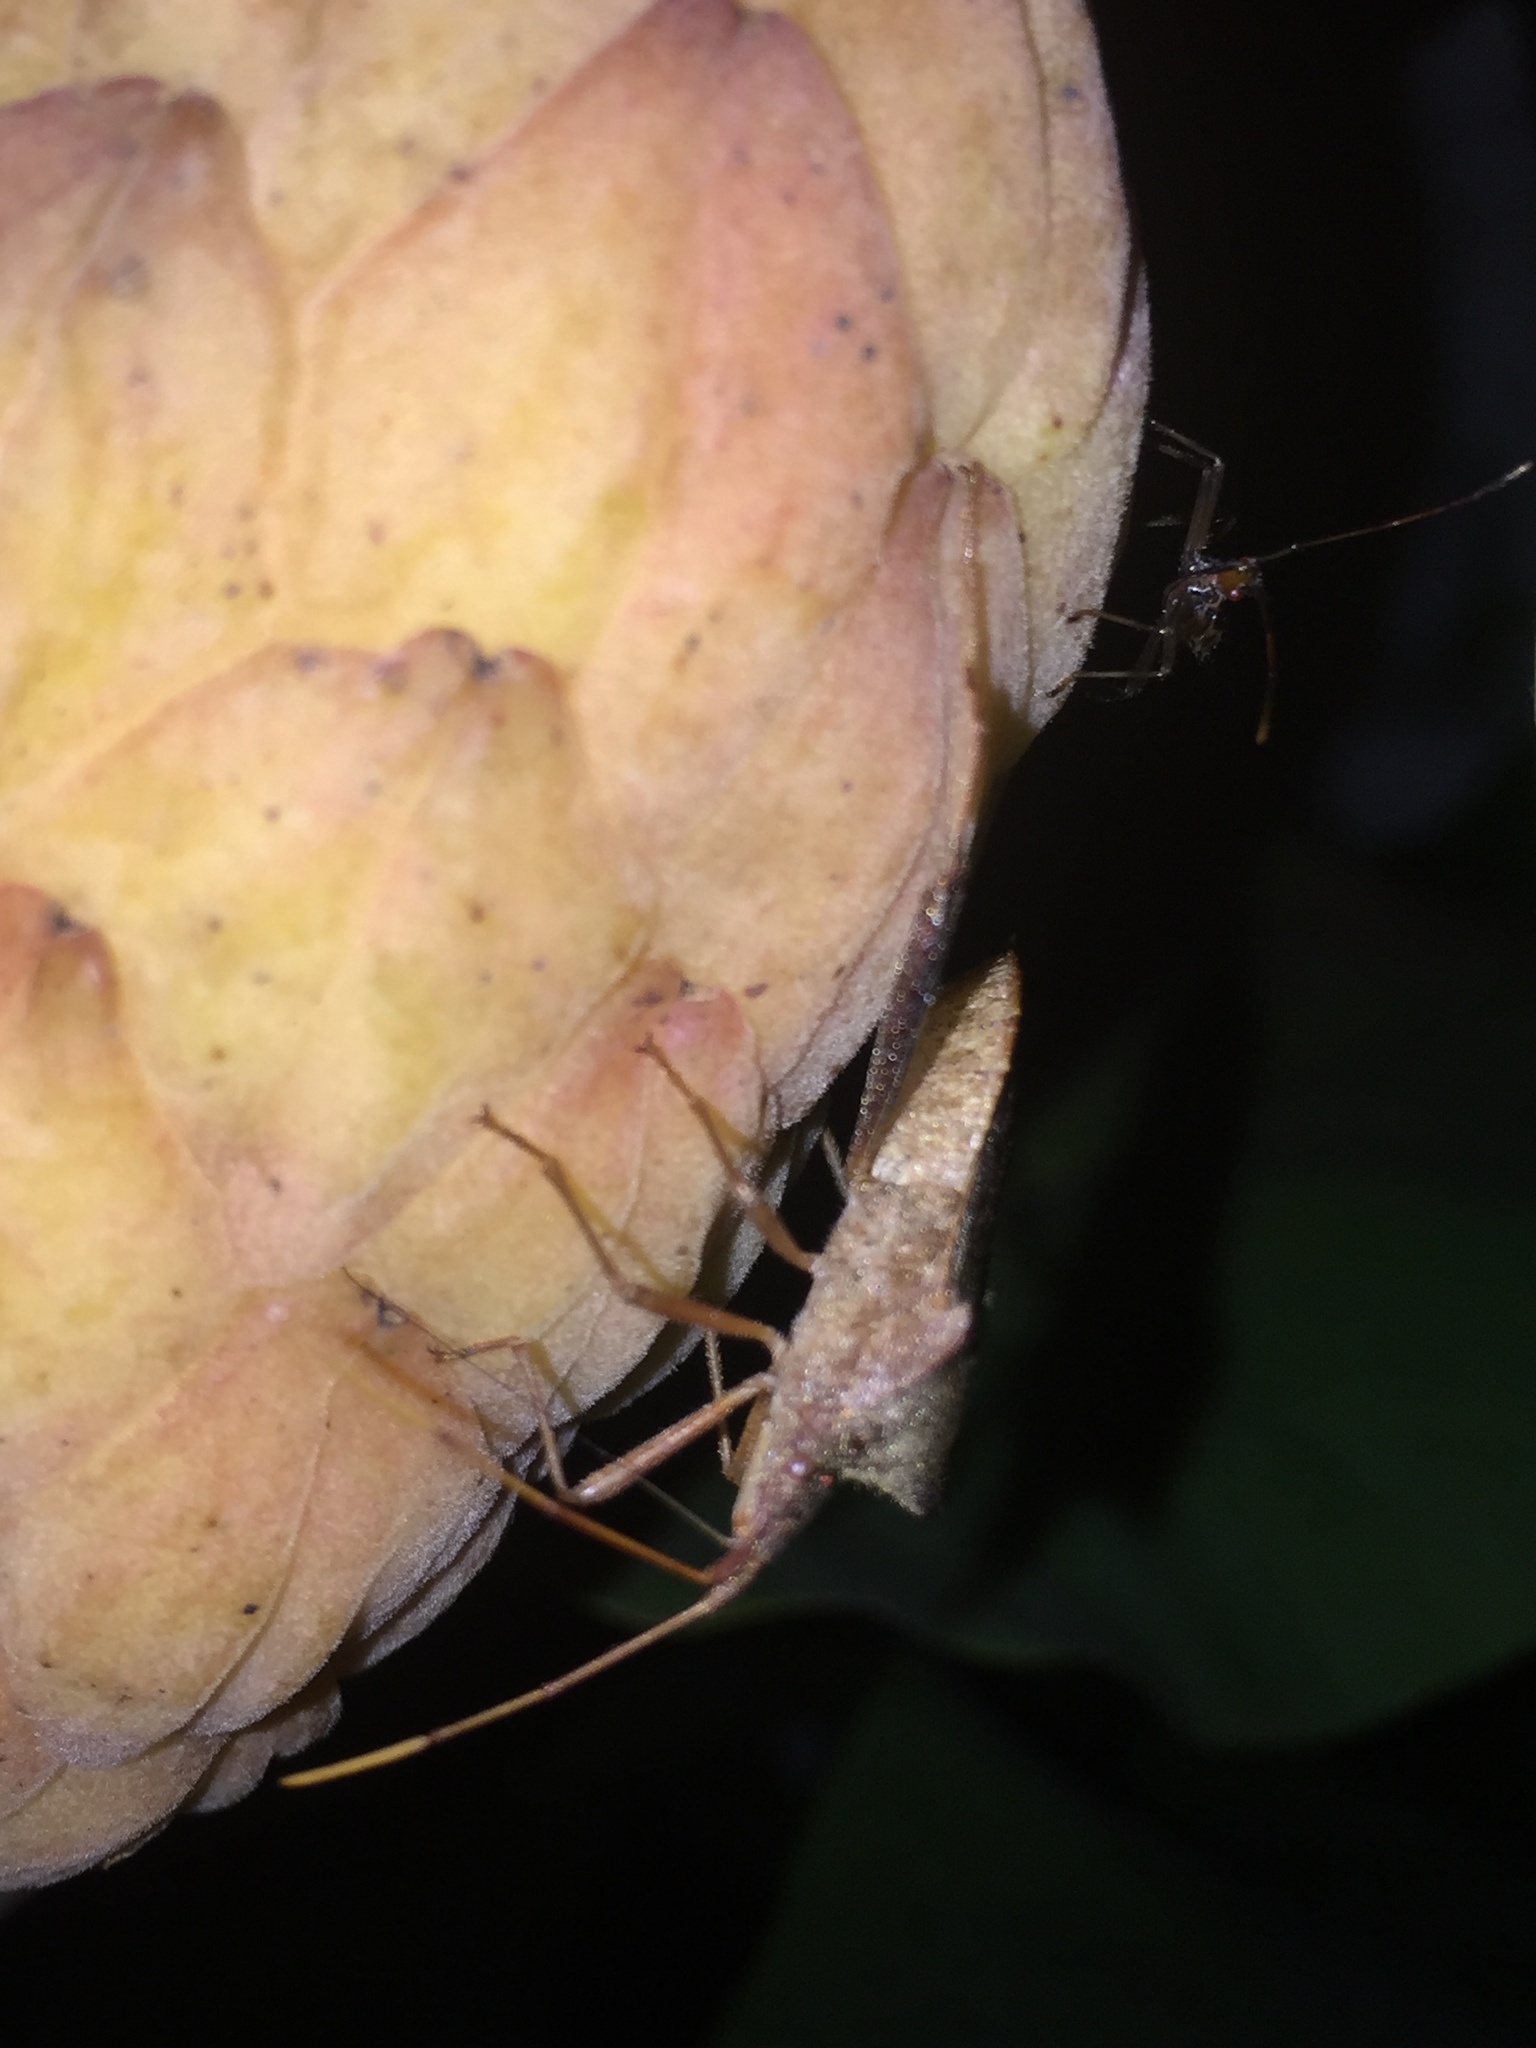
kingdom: Animalia
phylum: Arthropoda
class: Insecta
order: Hemiptera
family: Coreidae
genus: Leptoglossus
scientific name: Leptoglossus fulvicornis
